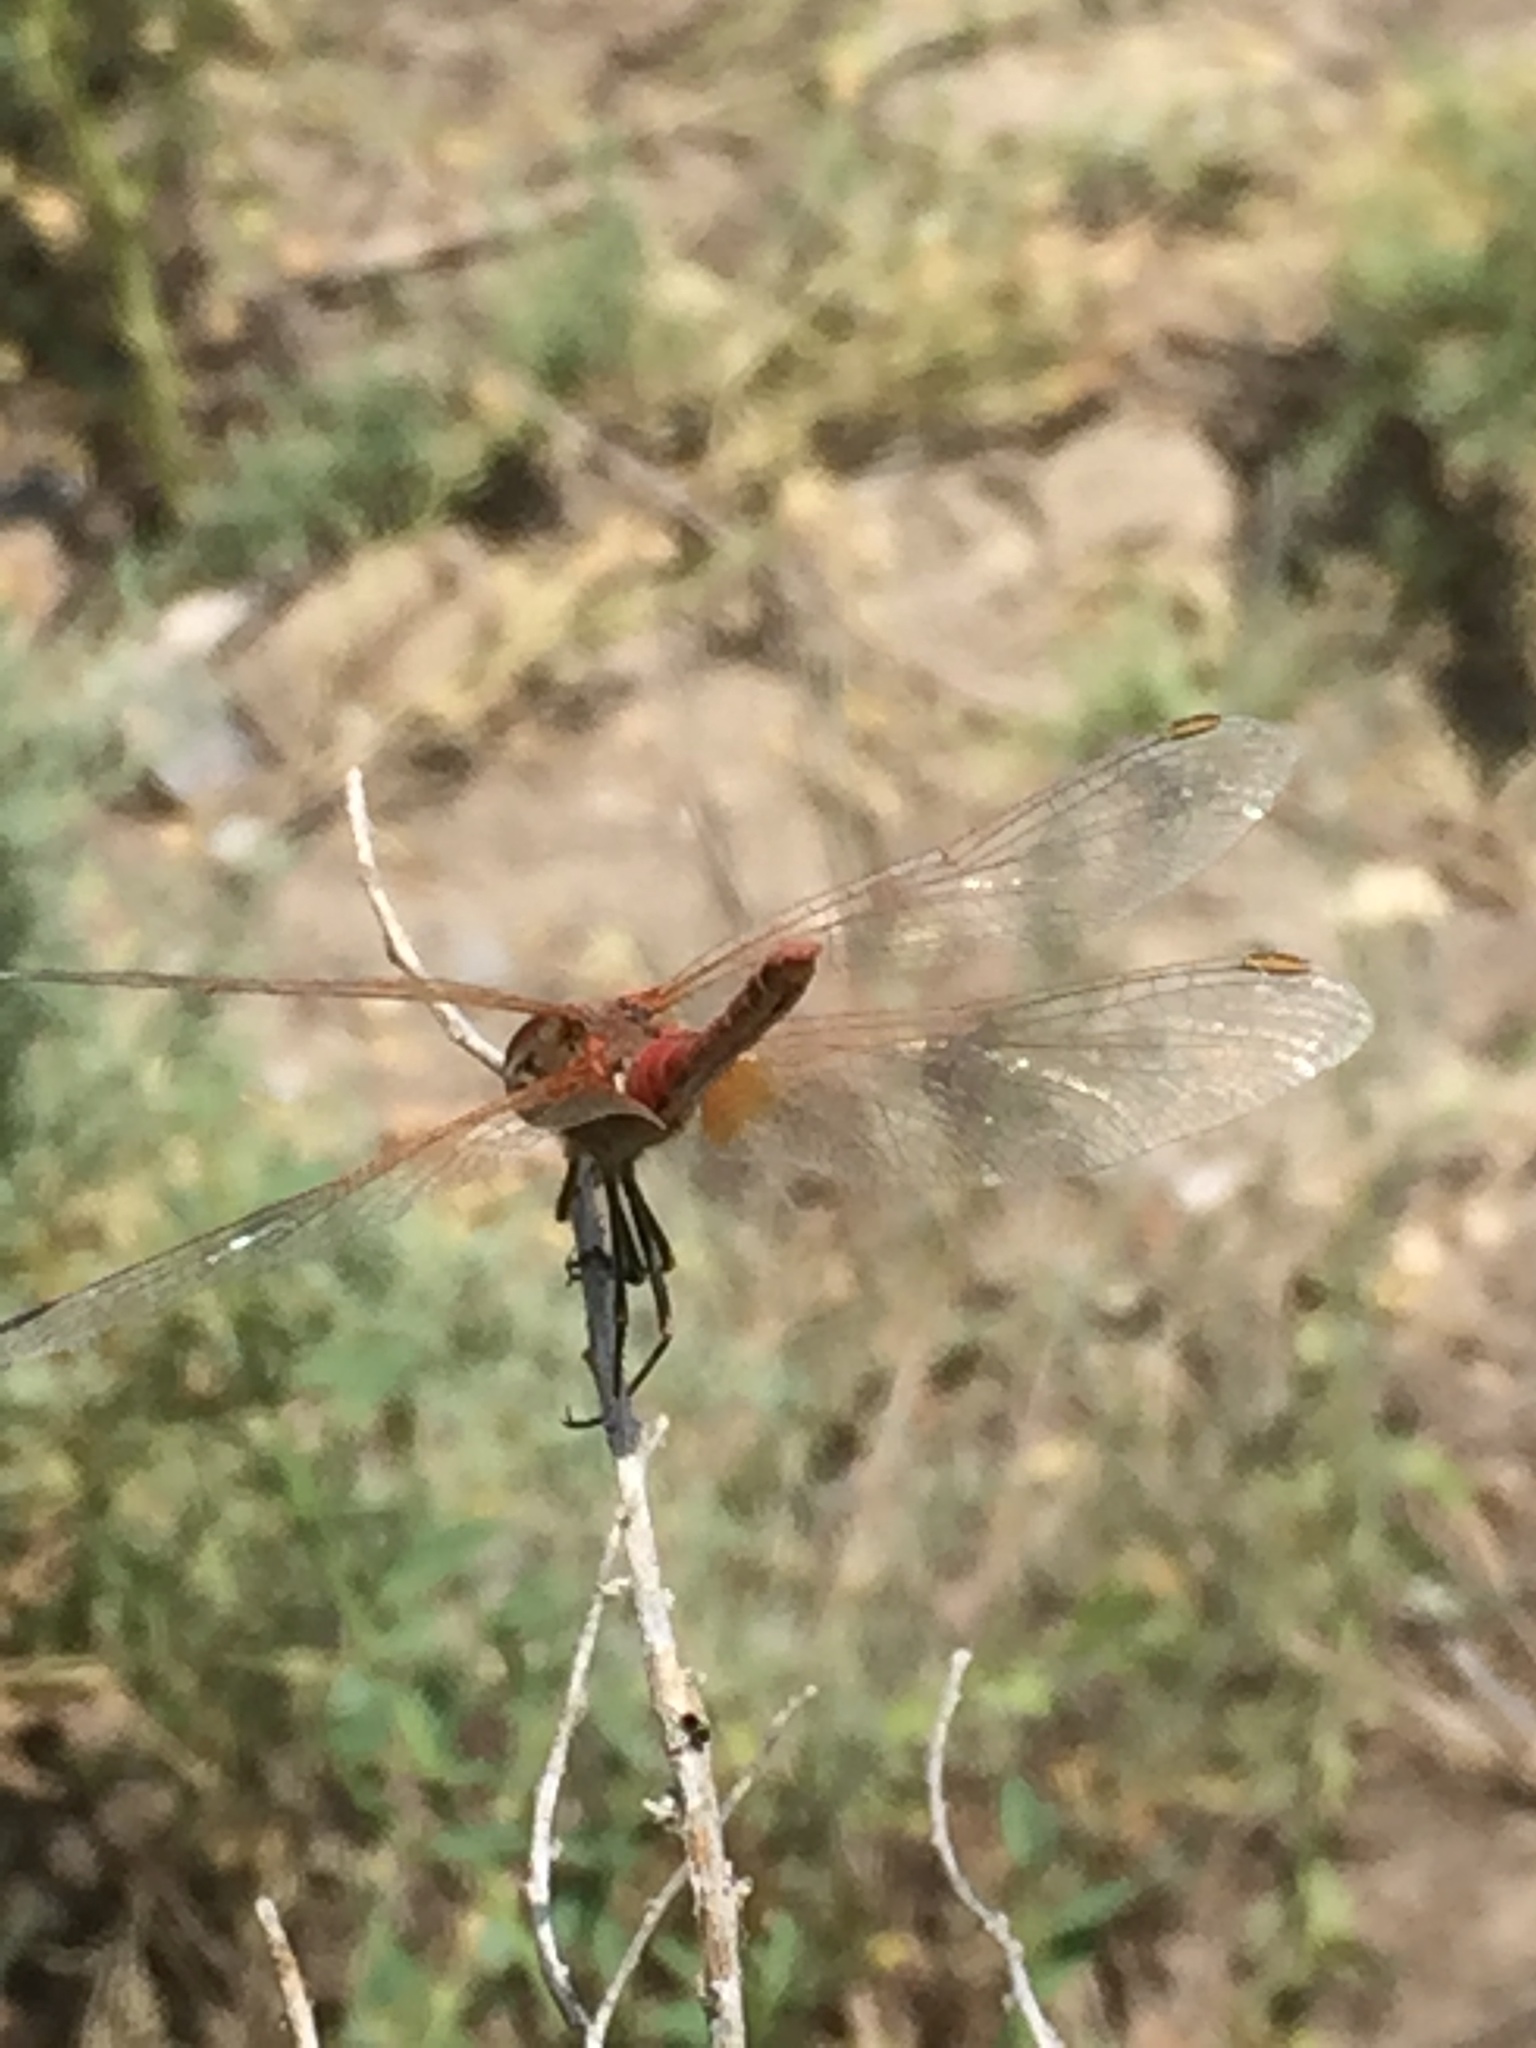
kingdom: Animalia
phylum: Arthropoda
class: Insecta
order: Odonata
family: Libellulidae
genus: Sympetrum
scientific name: Sympetrum fonscolombii
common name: Red-veined darter
